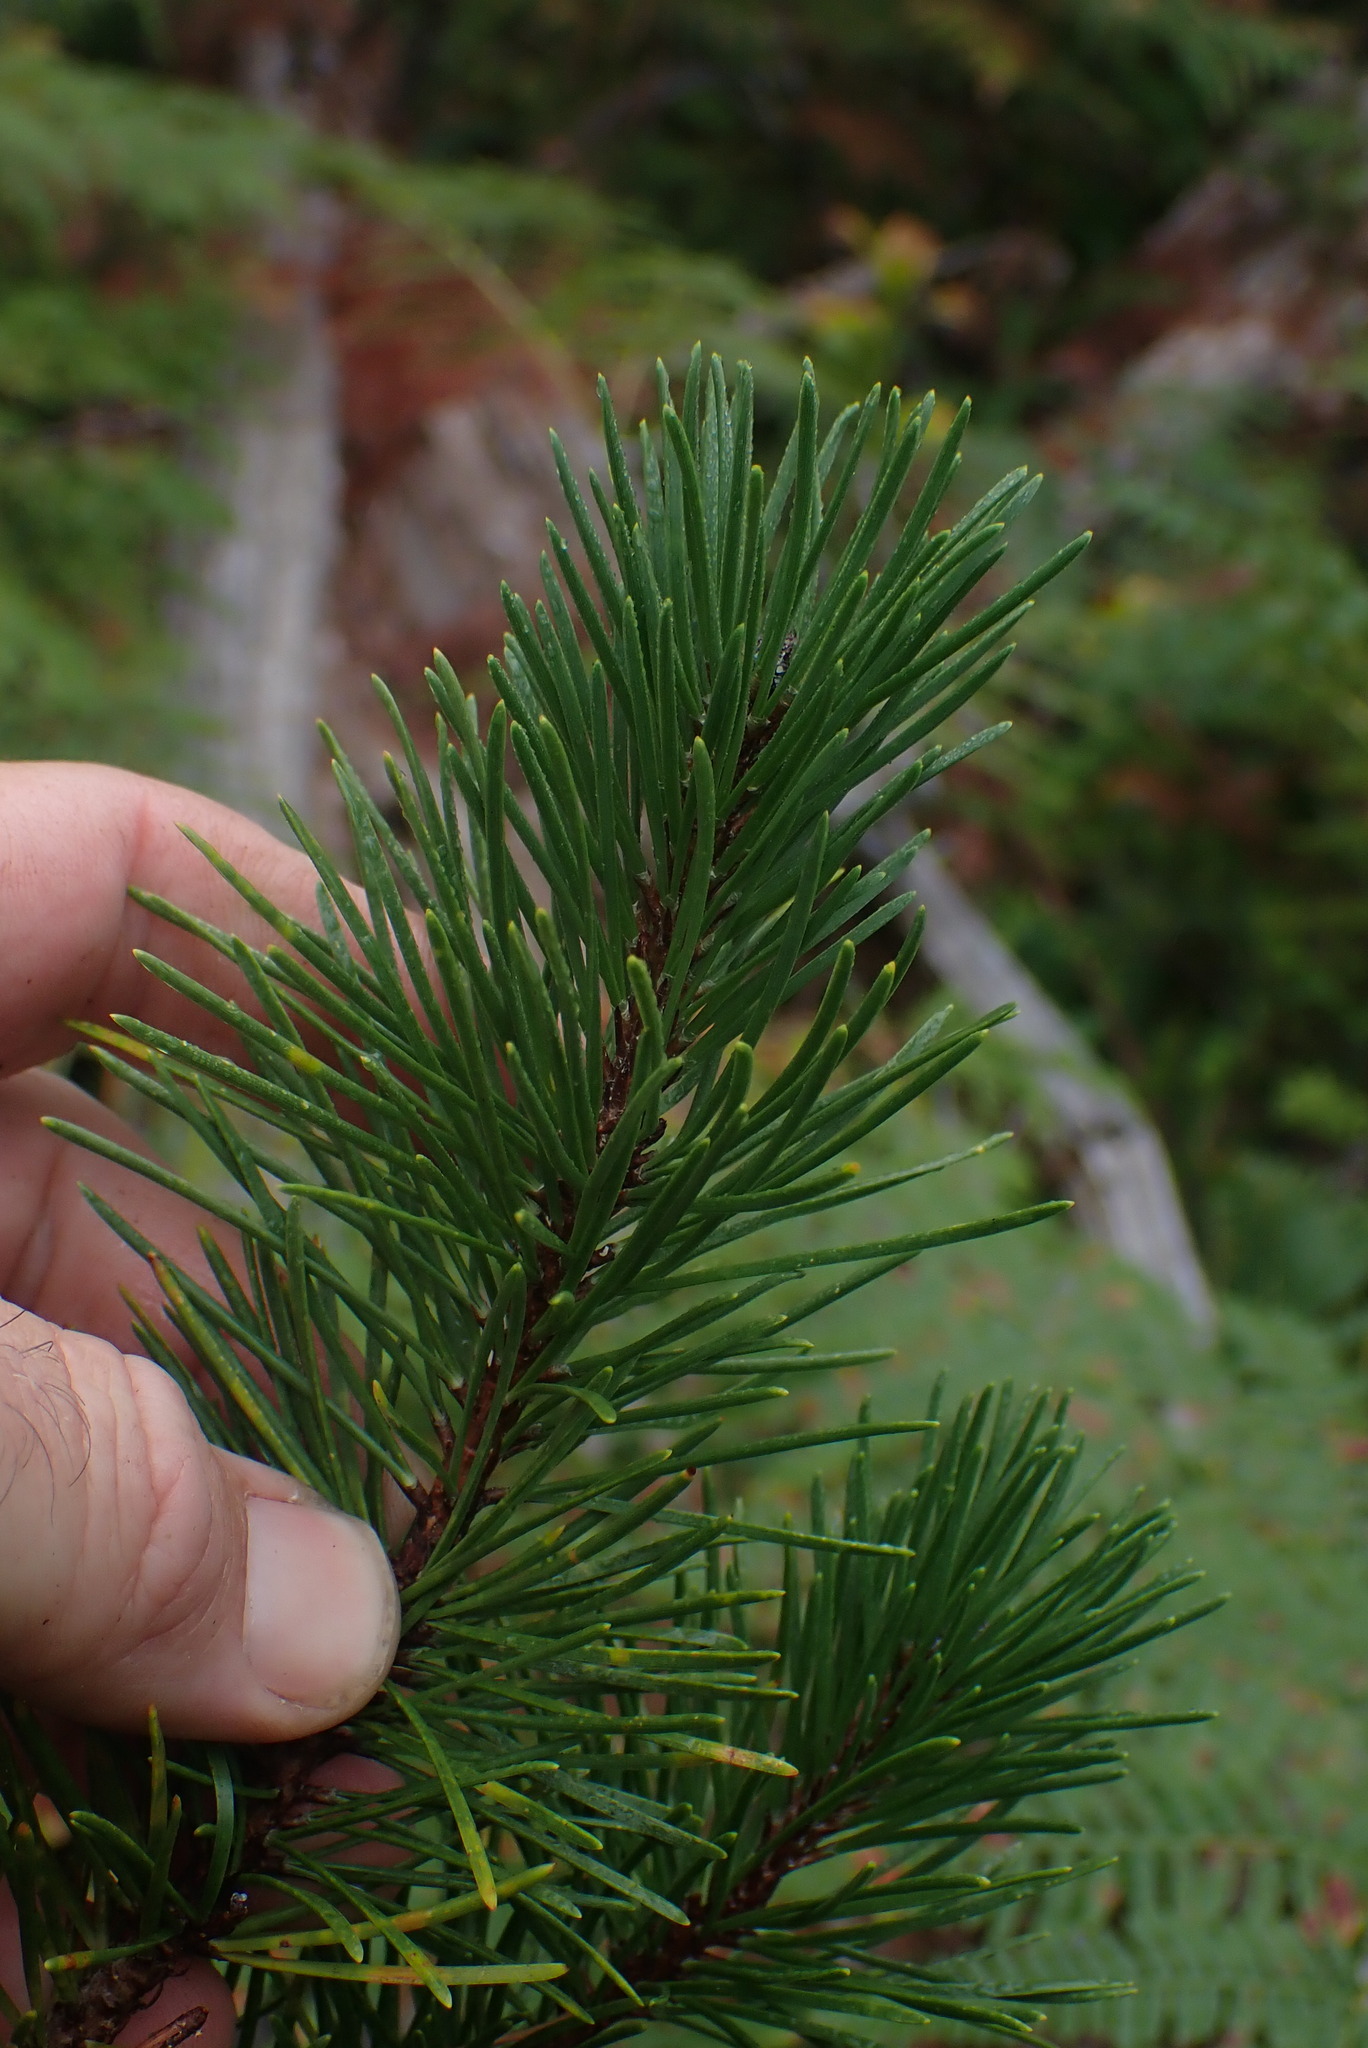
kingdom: Plantae
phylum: Tracheophyta
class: Pinopsida
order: Pinales
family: Pinaceae
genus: Pinus
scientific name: Pinus contorta
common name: Lodgepole pine
